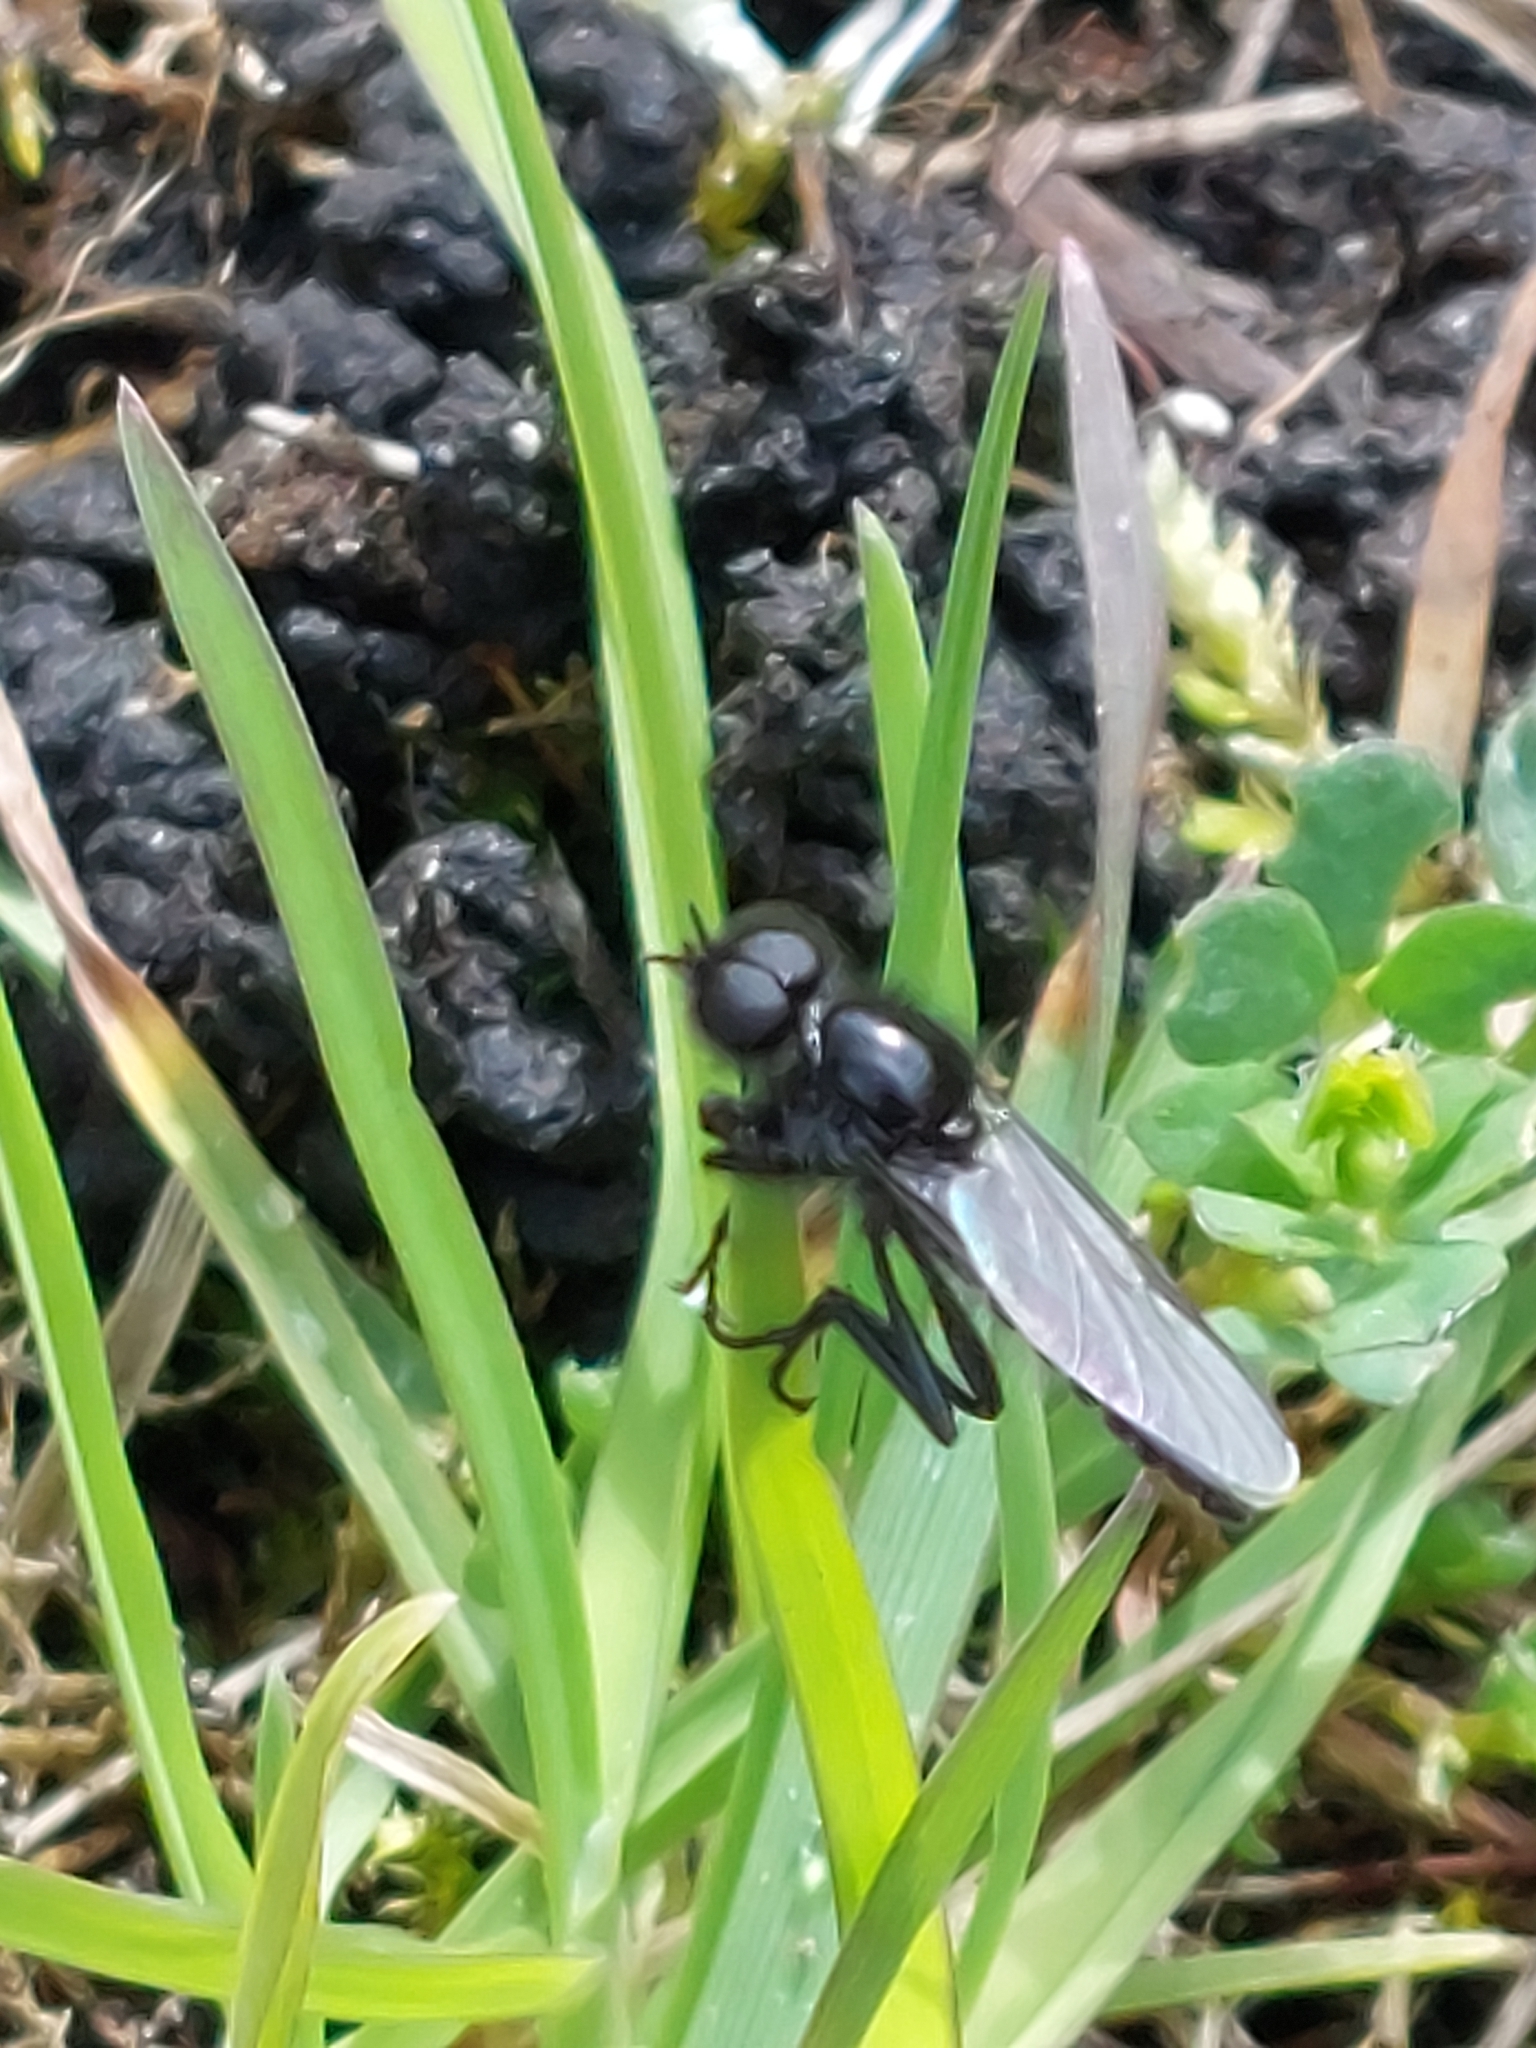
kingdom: Animalia
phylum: Arthropoda
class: Insecta
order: Diptera
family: Bibionidae
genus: Bibio
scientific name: Bibio marci
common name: St marks fly
